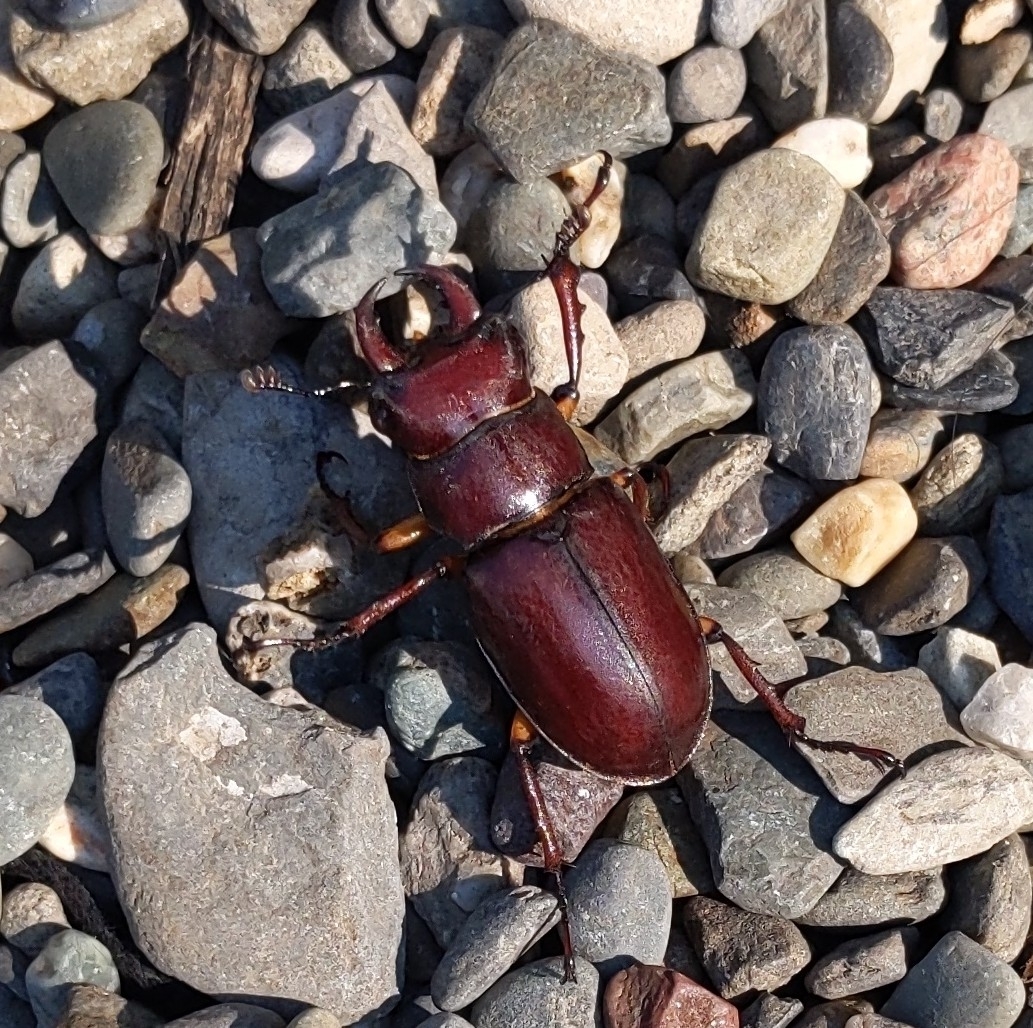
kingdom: Animalia
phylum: Arthropoda
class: Insecta
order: Coleoptera
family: Lucanidae
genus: Lucanus
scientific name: Lucanus capreolus
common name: Stag beetle
